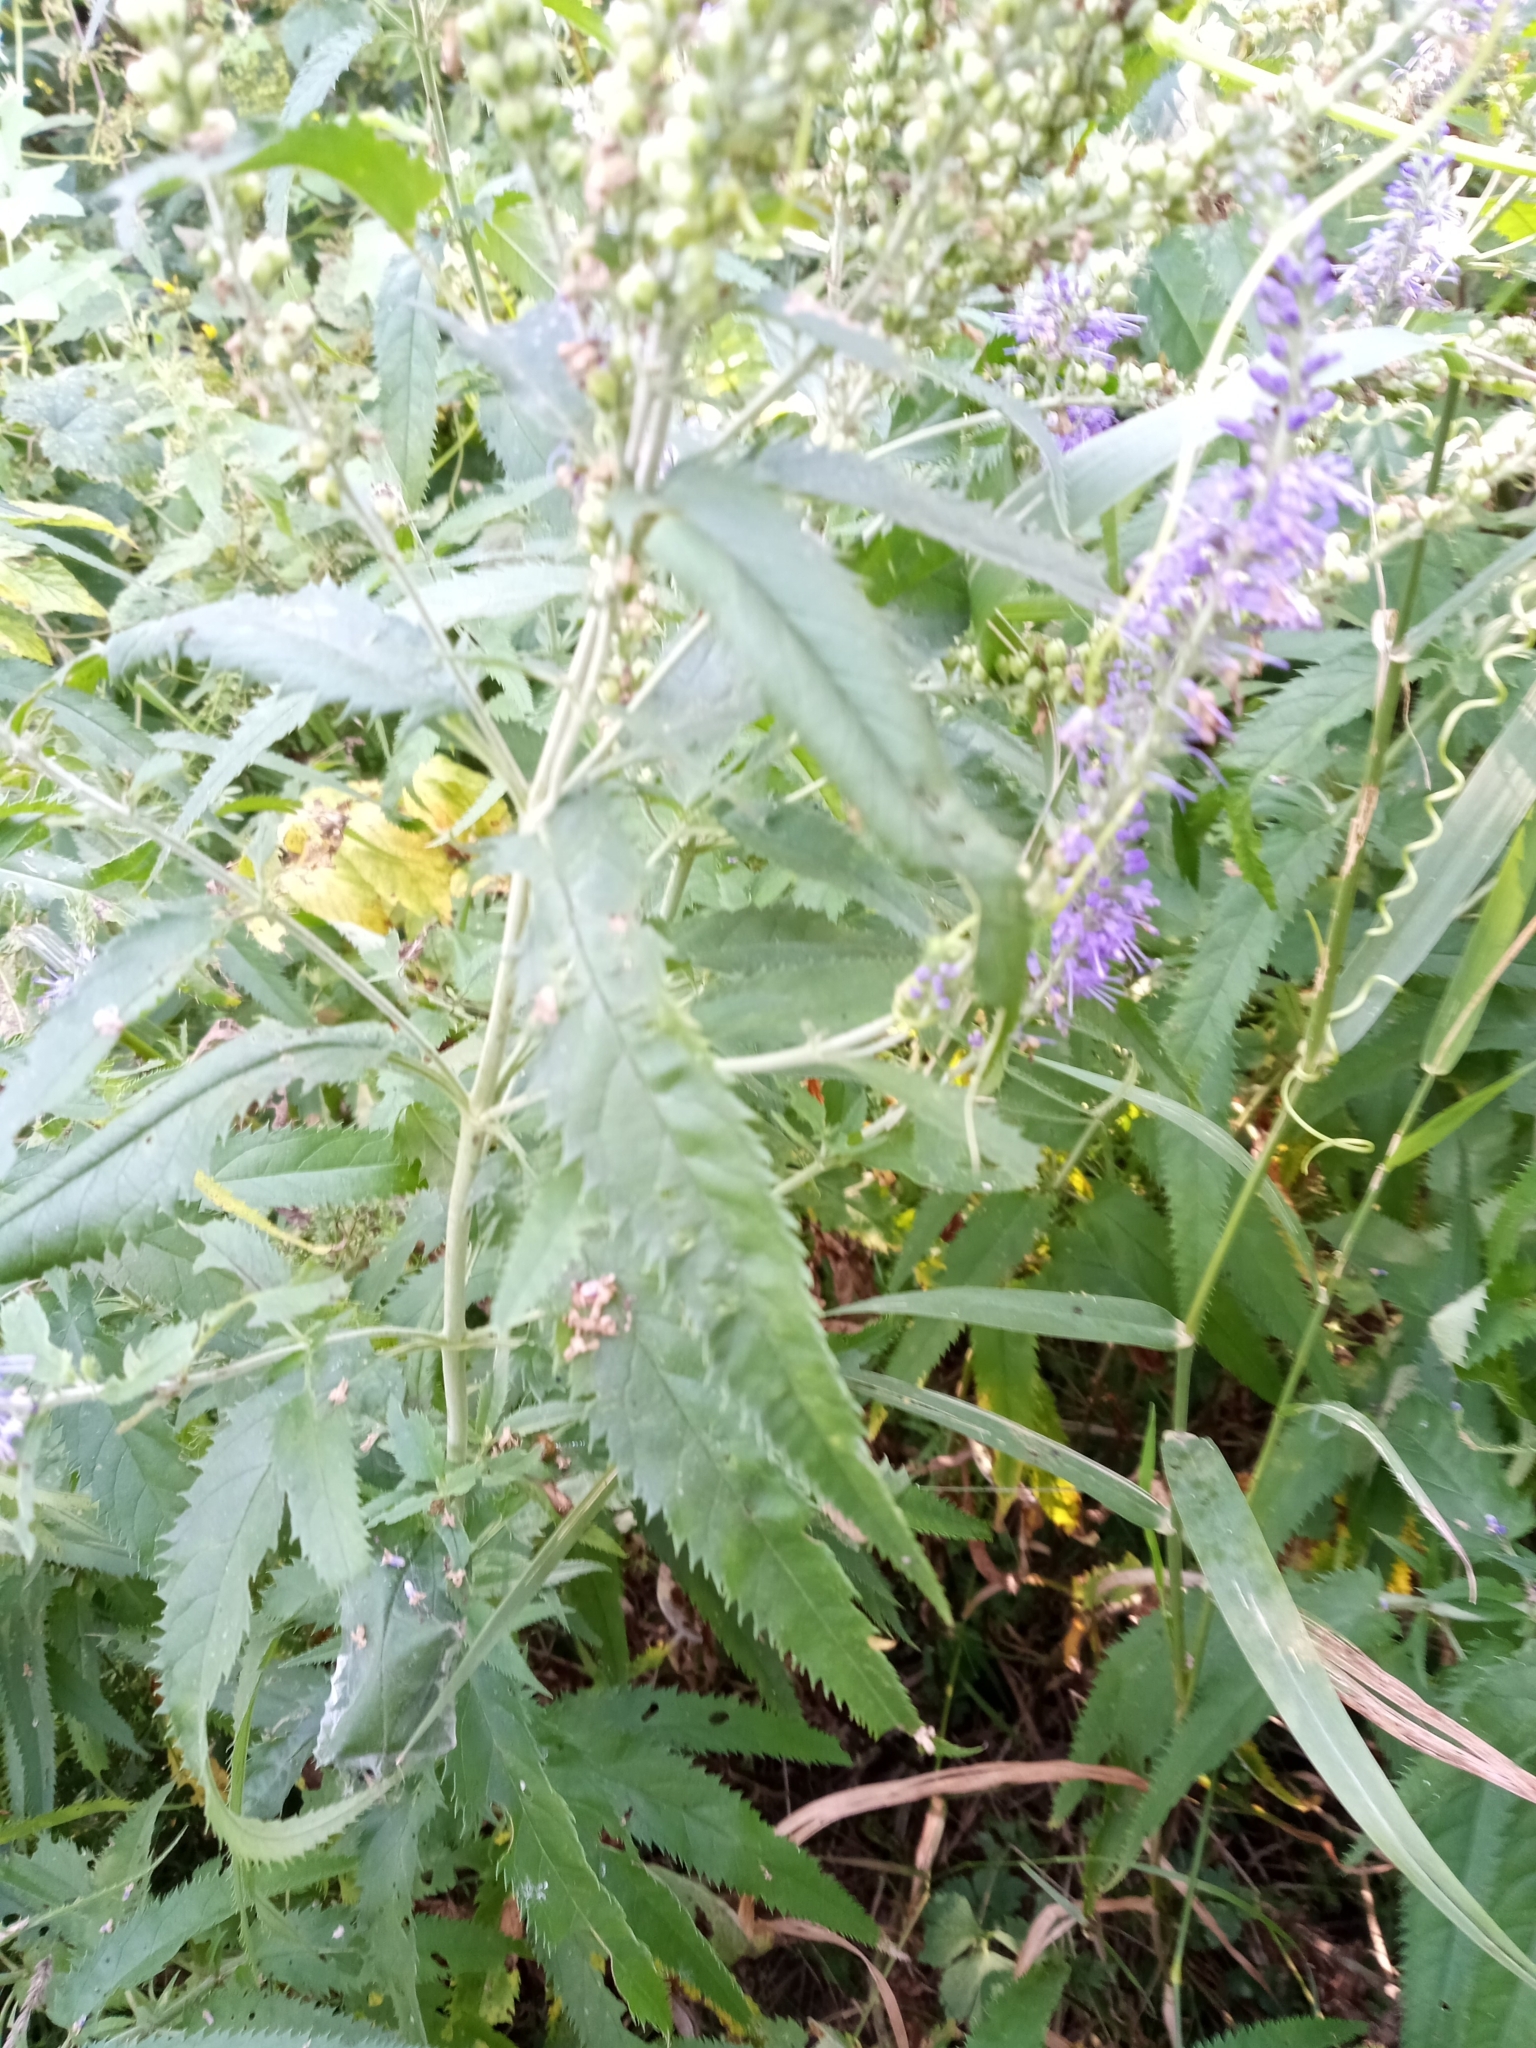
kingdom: Plantae
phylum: Tracheophyta
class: Magnoliopsida
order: Lamiales
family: Plantaginaceae
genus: Veronica
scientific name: Veronica longifolia
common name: Garden speedwell
